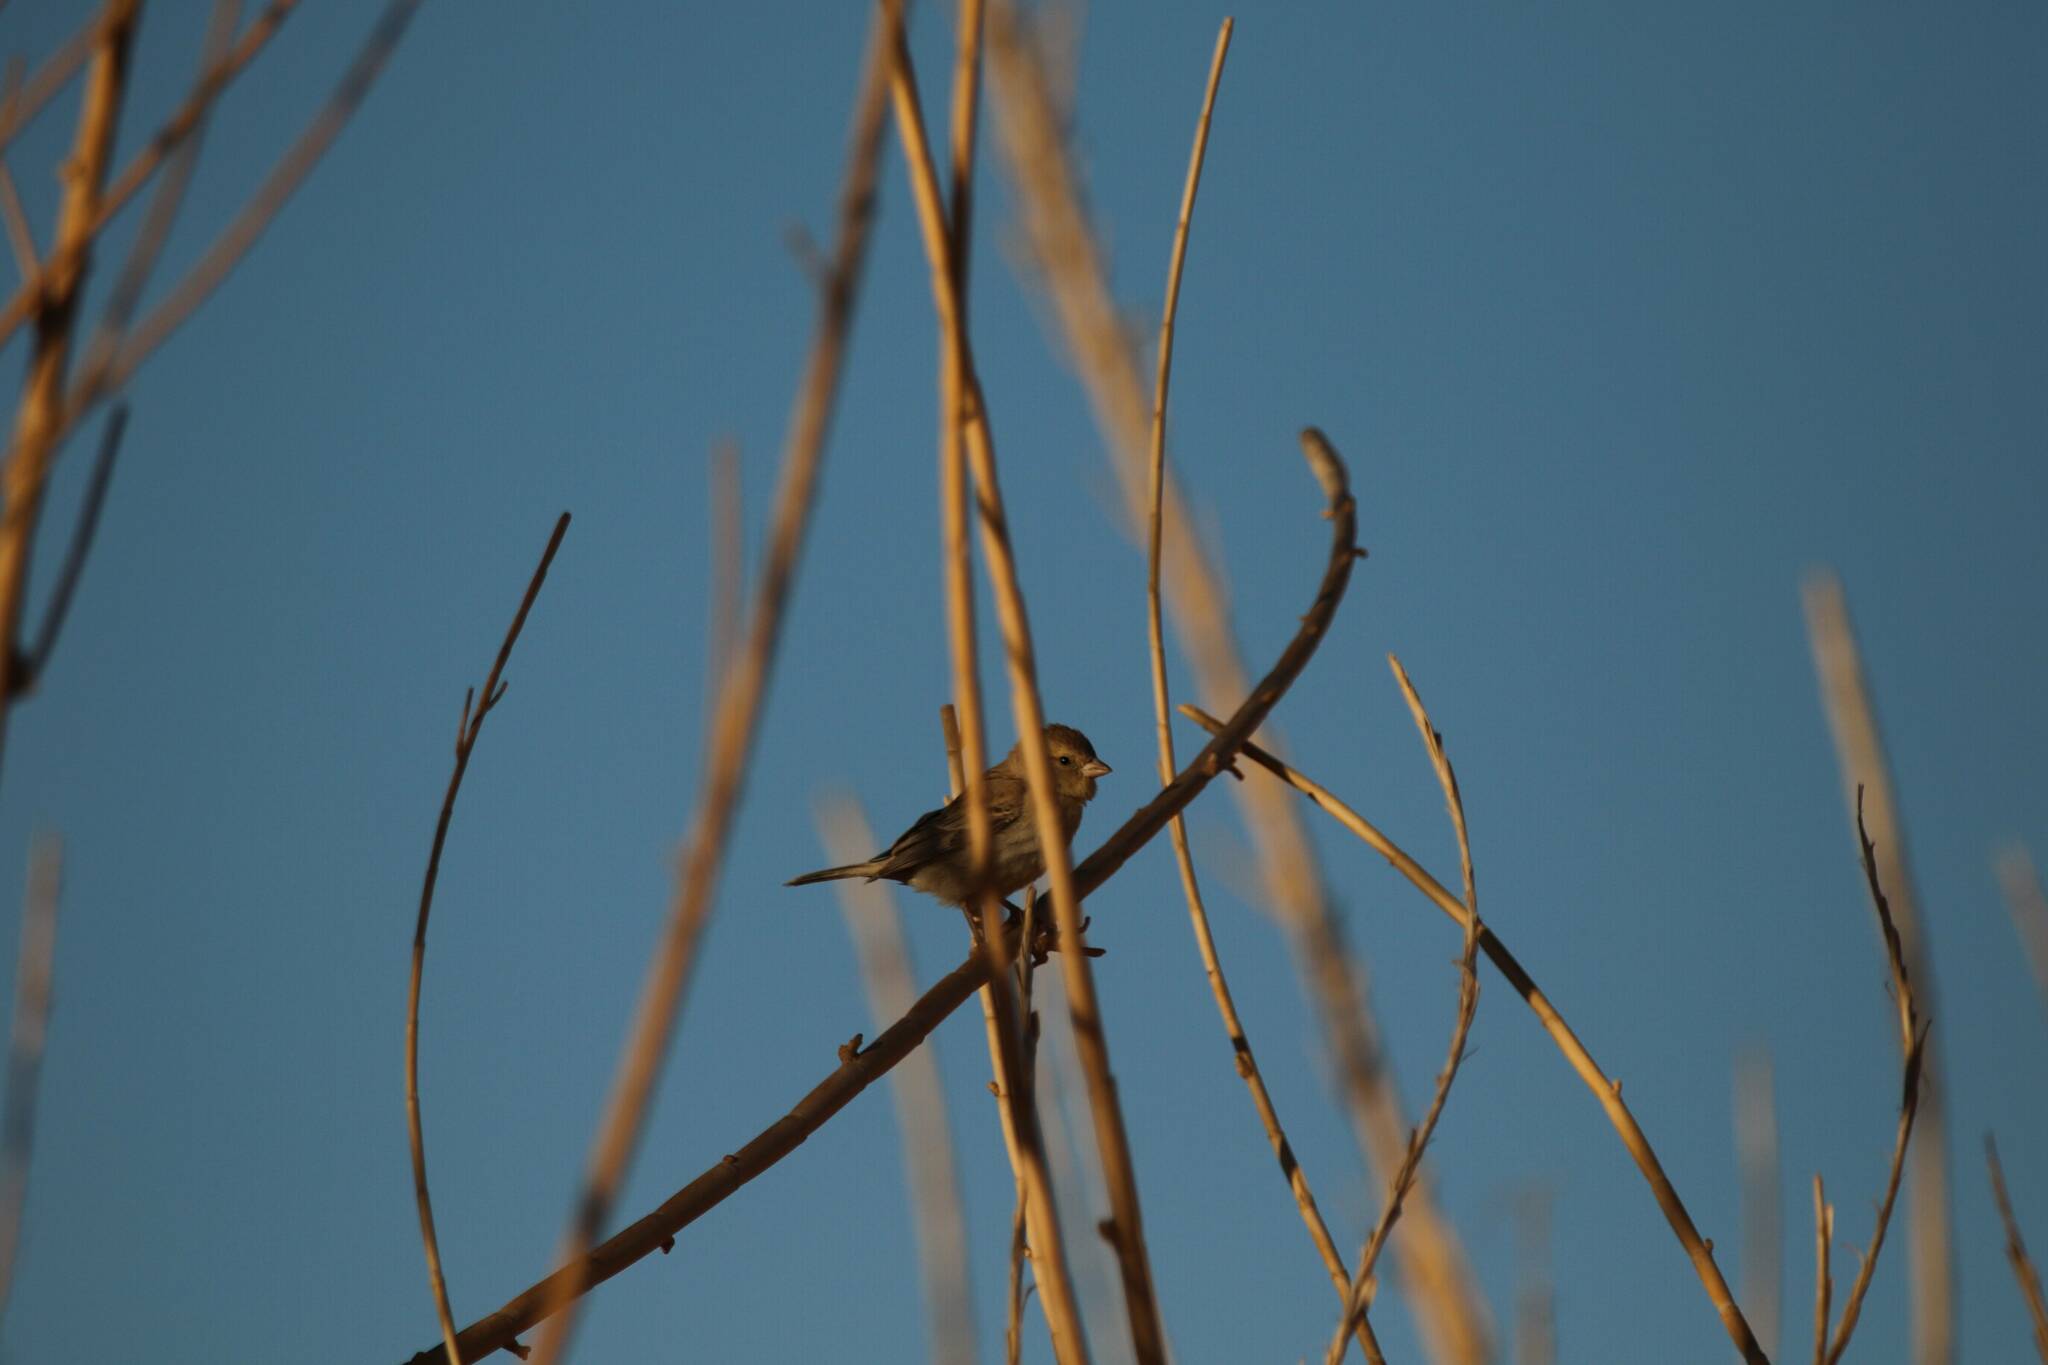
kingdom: Animalia
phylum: Chordata
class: Aves
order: Passeriformes
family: Passeridae
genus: Passer
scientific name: Passer domesticus
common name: House sparrow
